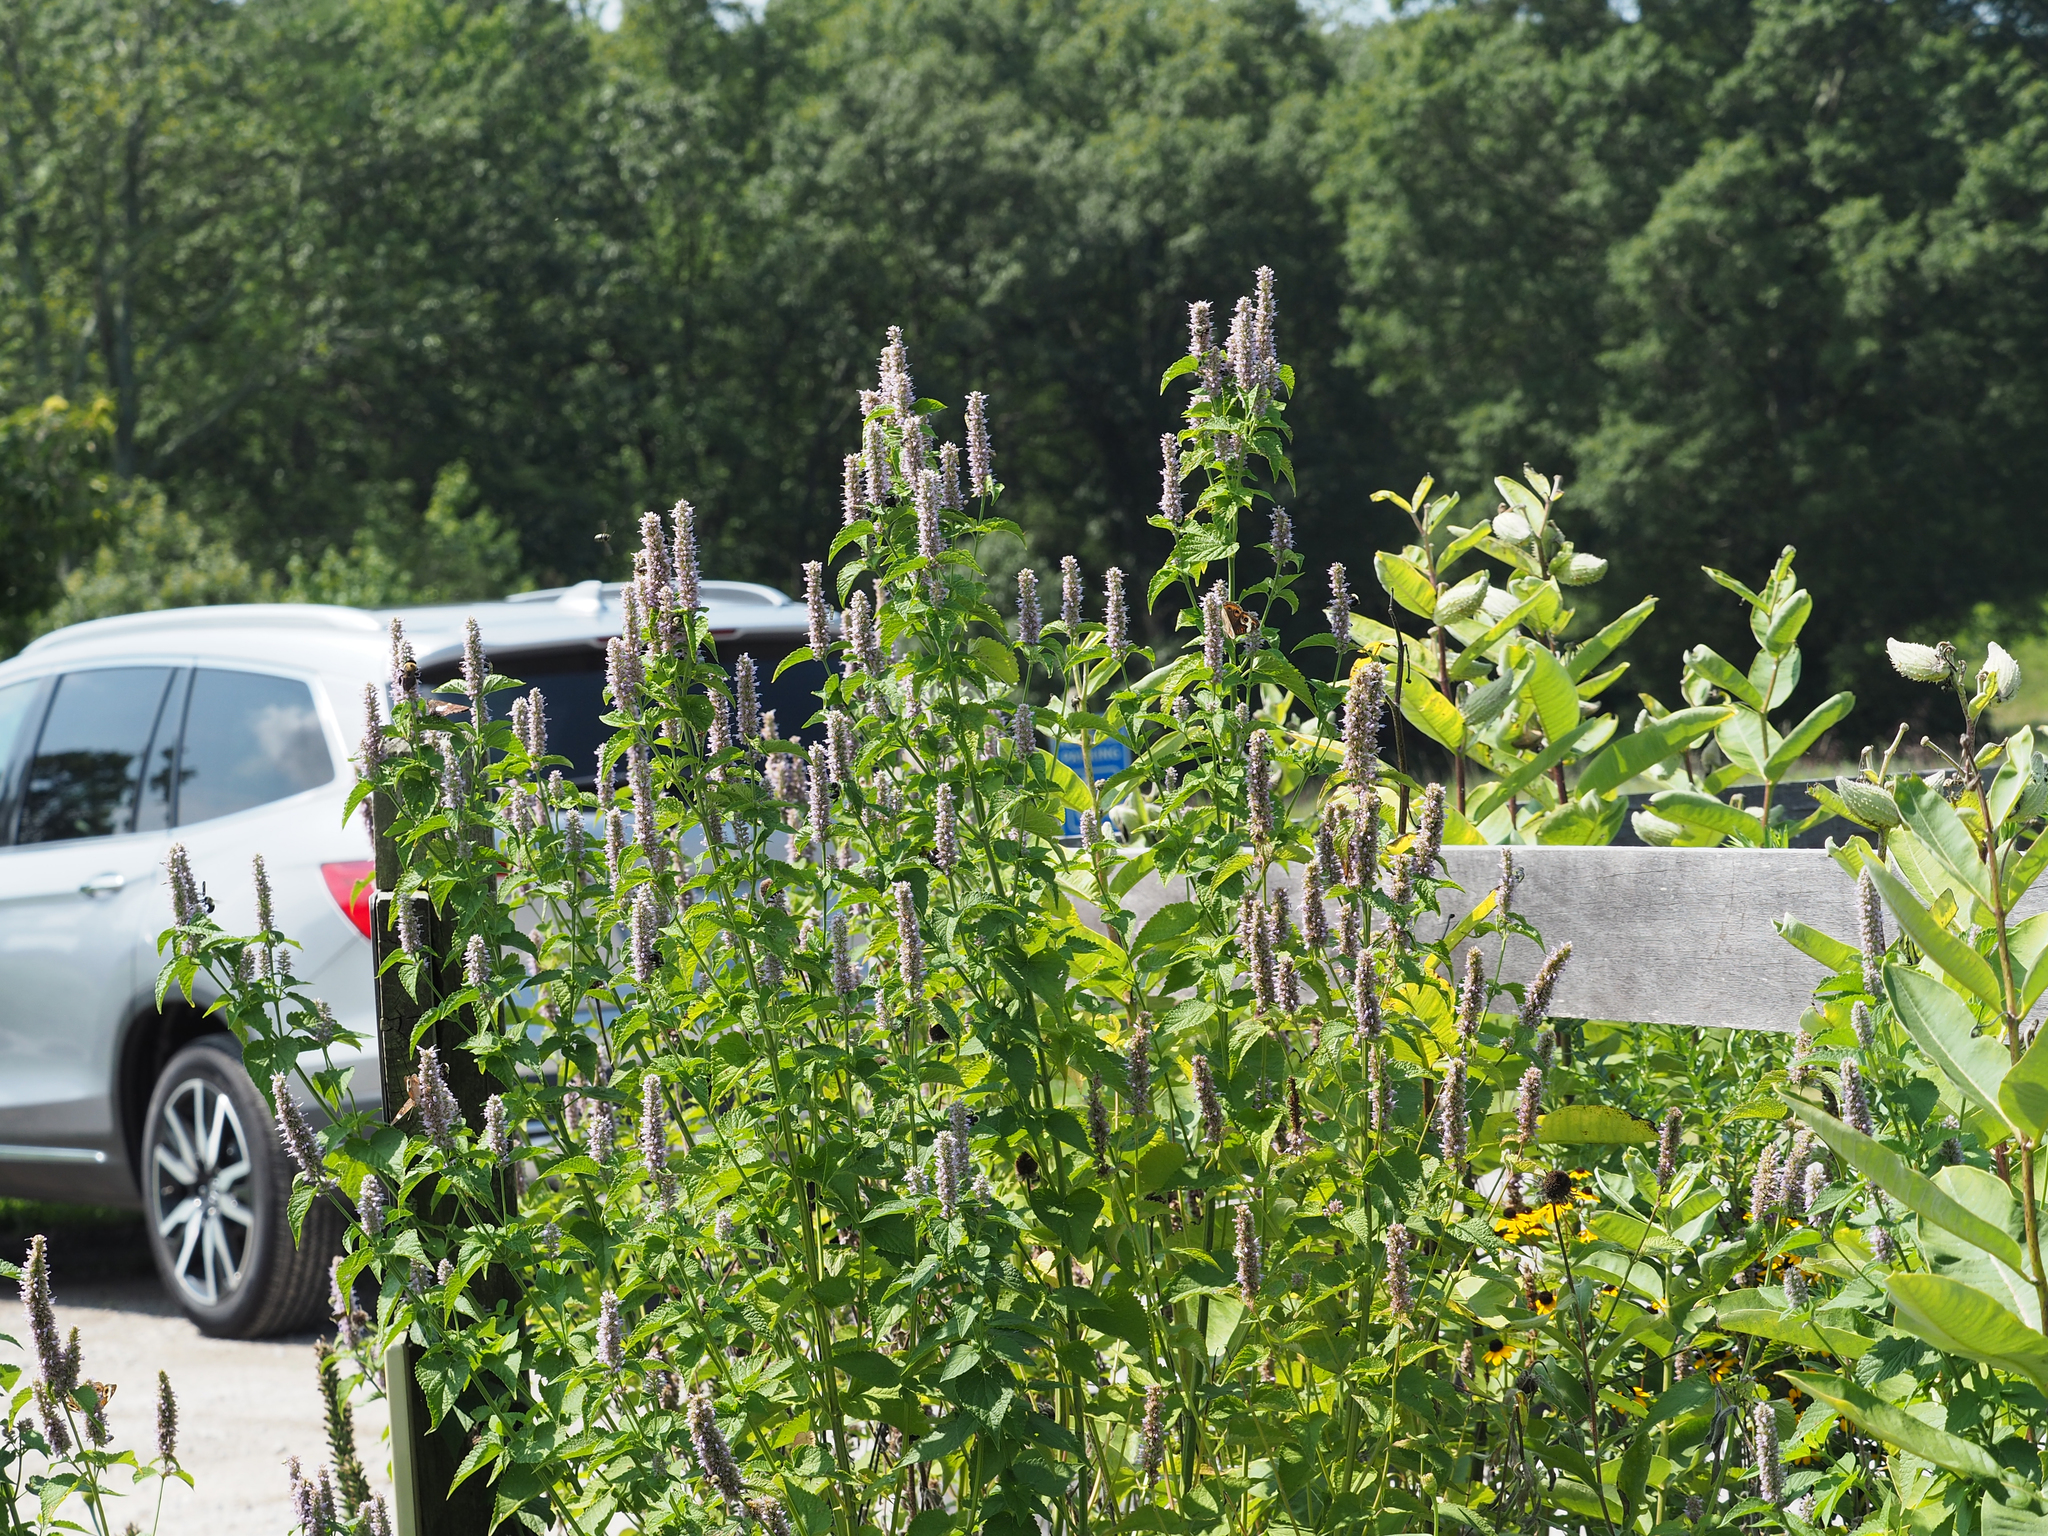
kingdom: Plantae
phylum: Tracheophyta
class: Magnoliopsida
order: Lamiales
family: Lamiaceae
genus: Agastache
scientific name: Agastache foeniculum
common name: Anise hyssop
